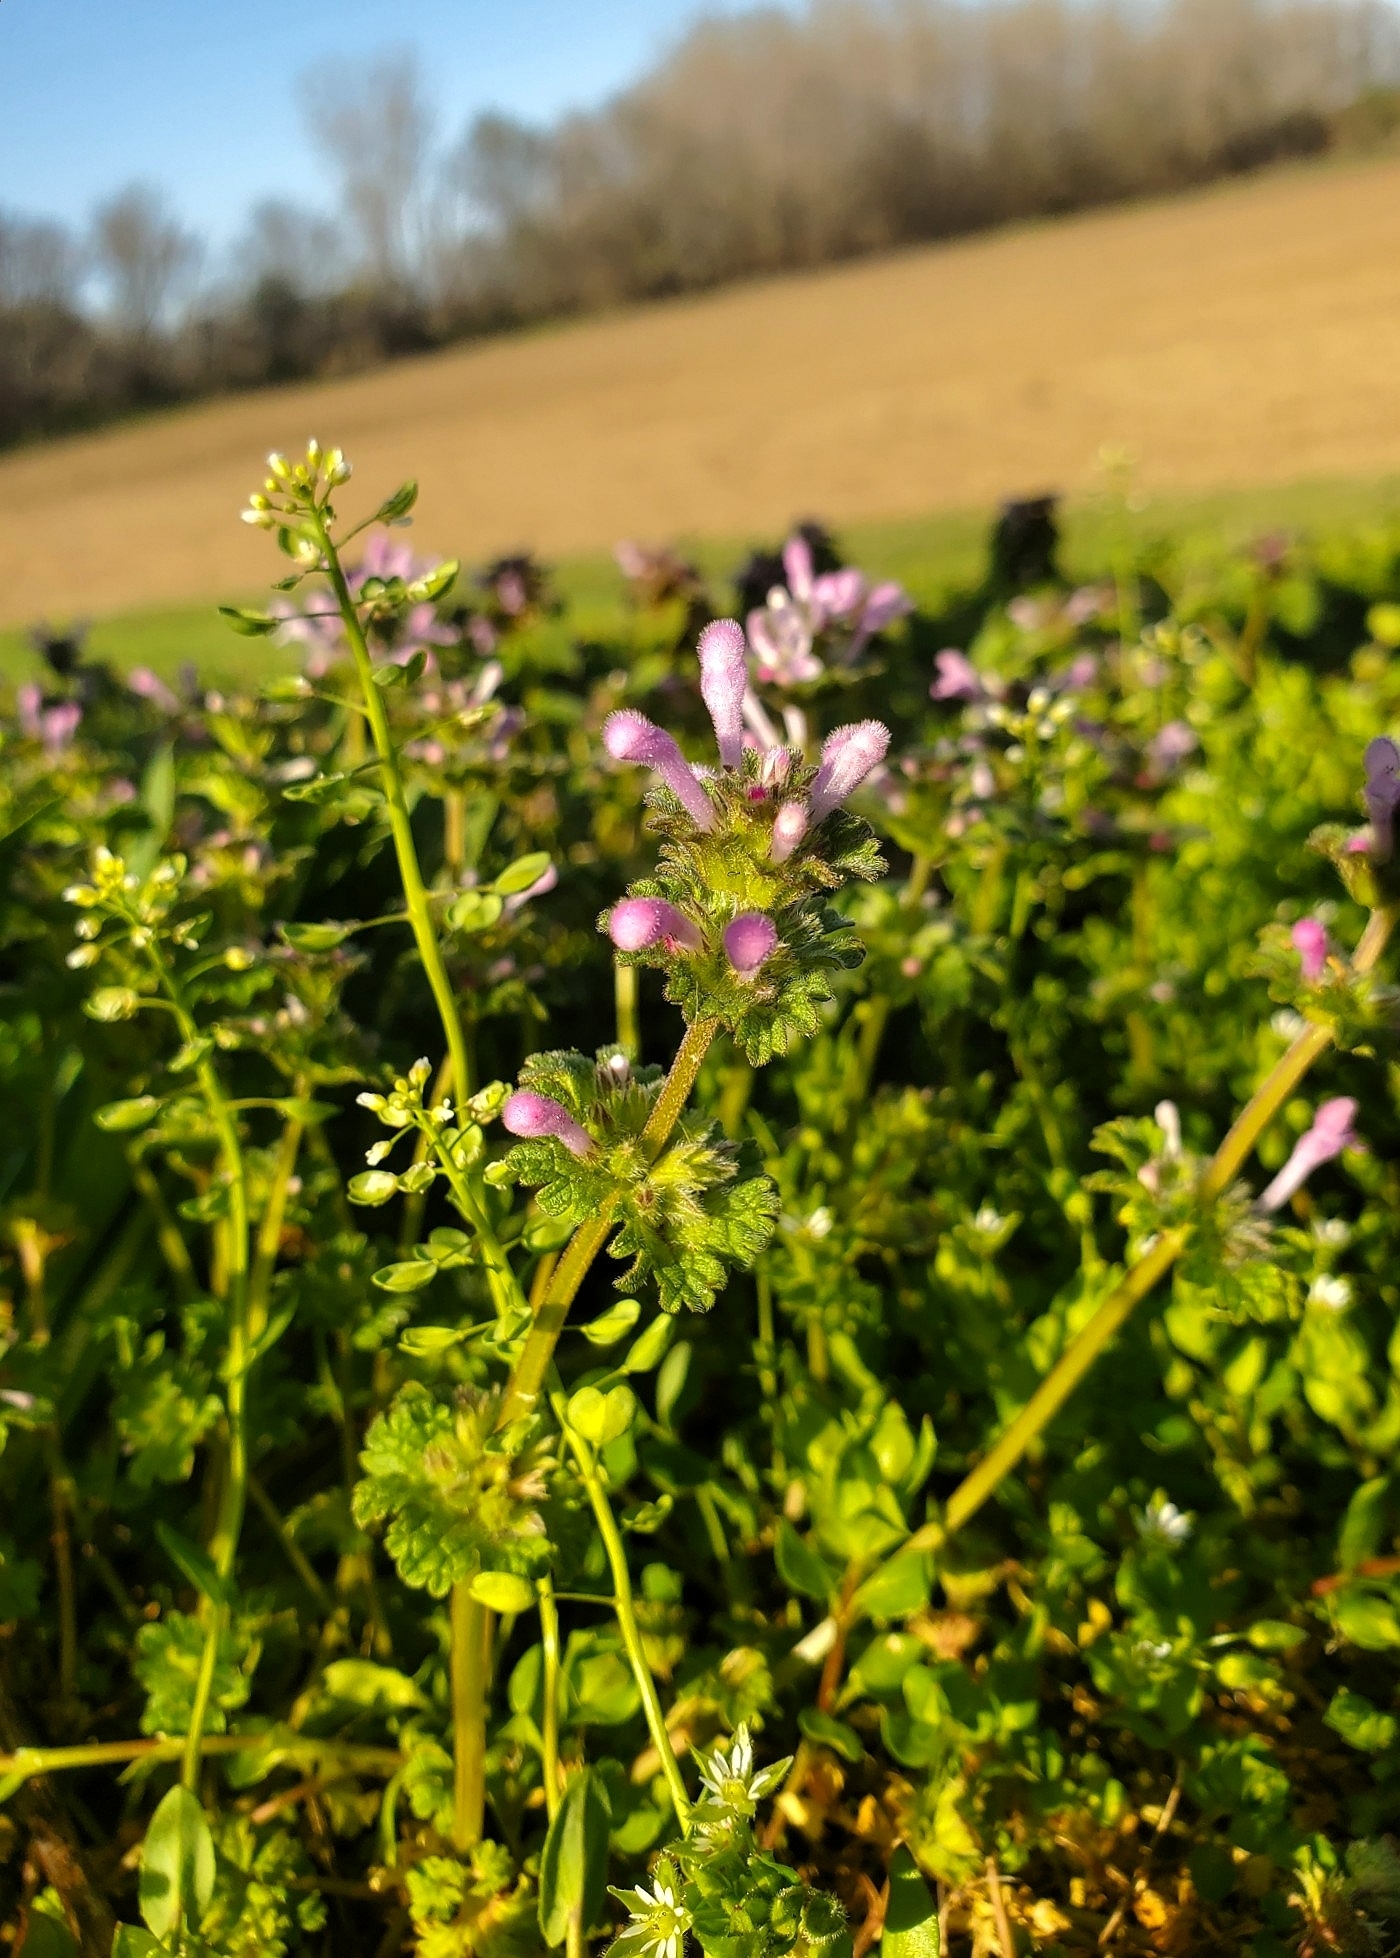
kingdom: Plantae
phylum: Tracheophyta
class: Magnoliopsida
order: Lamiales
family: Lamiaceae
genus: Lamium
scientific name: Lamium amplexicaule
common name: Henbit dead-nettle
